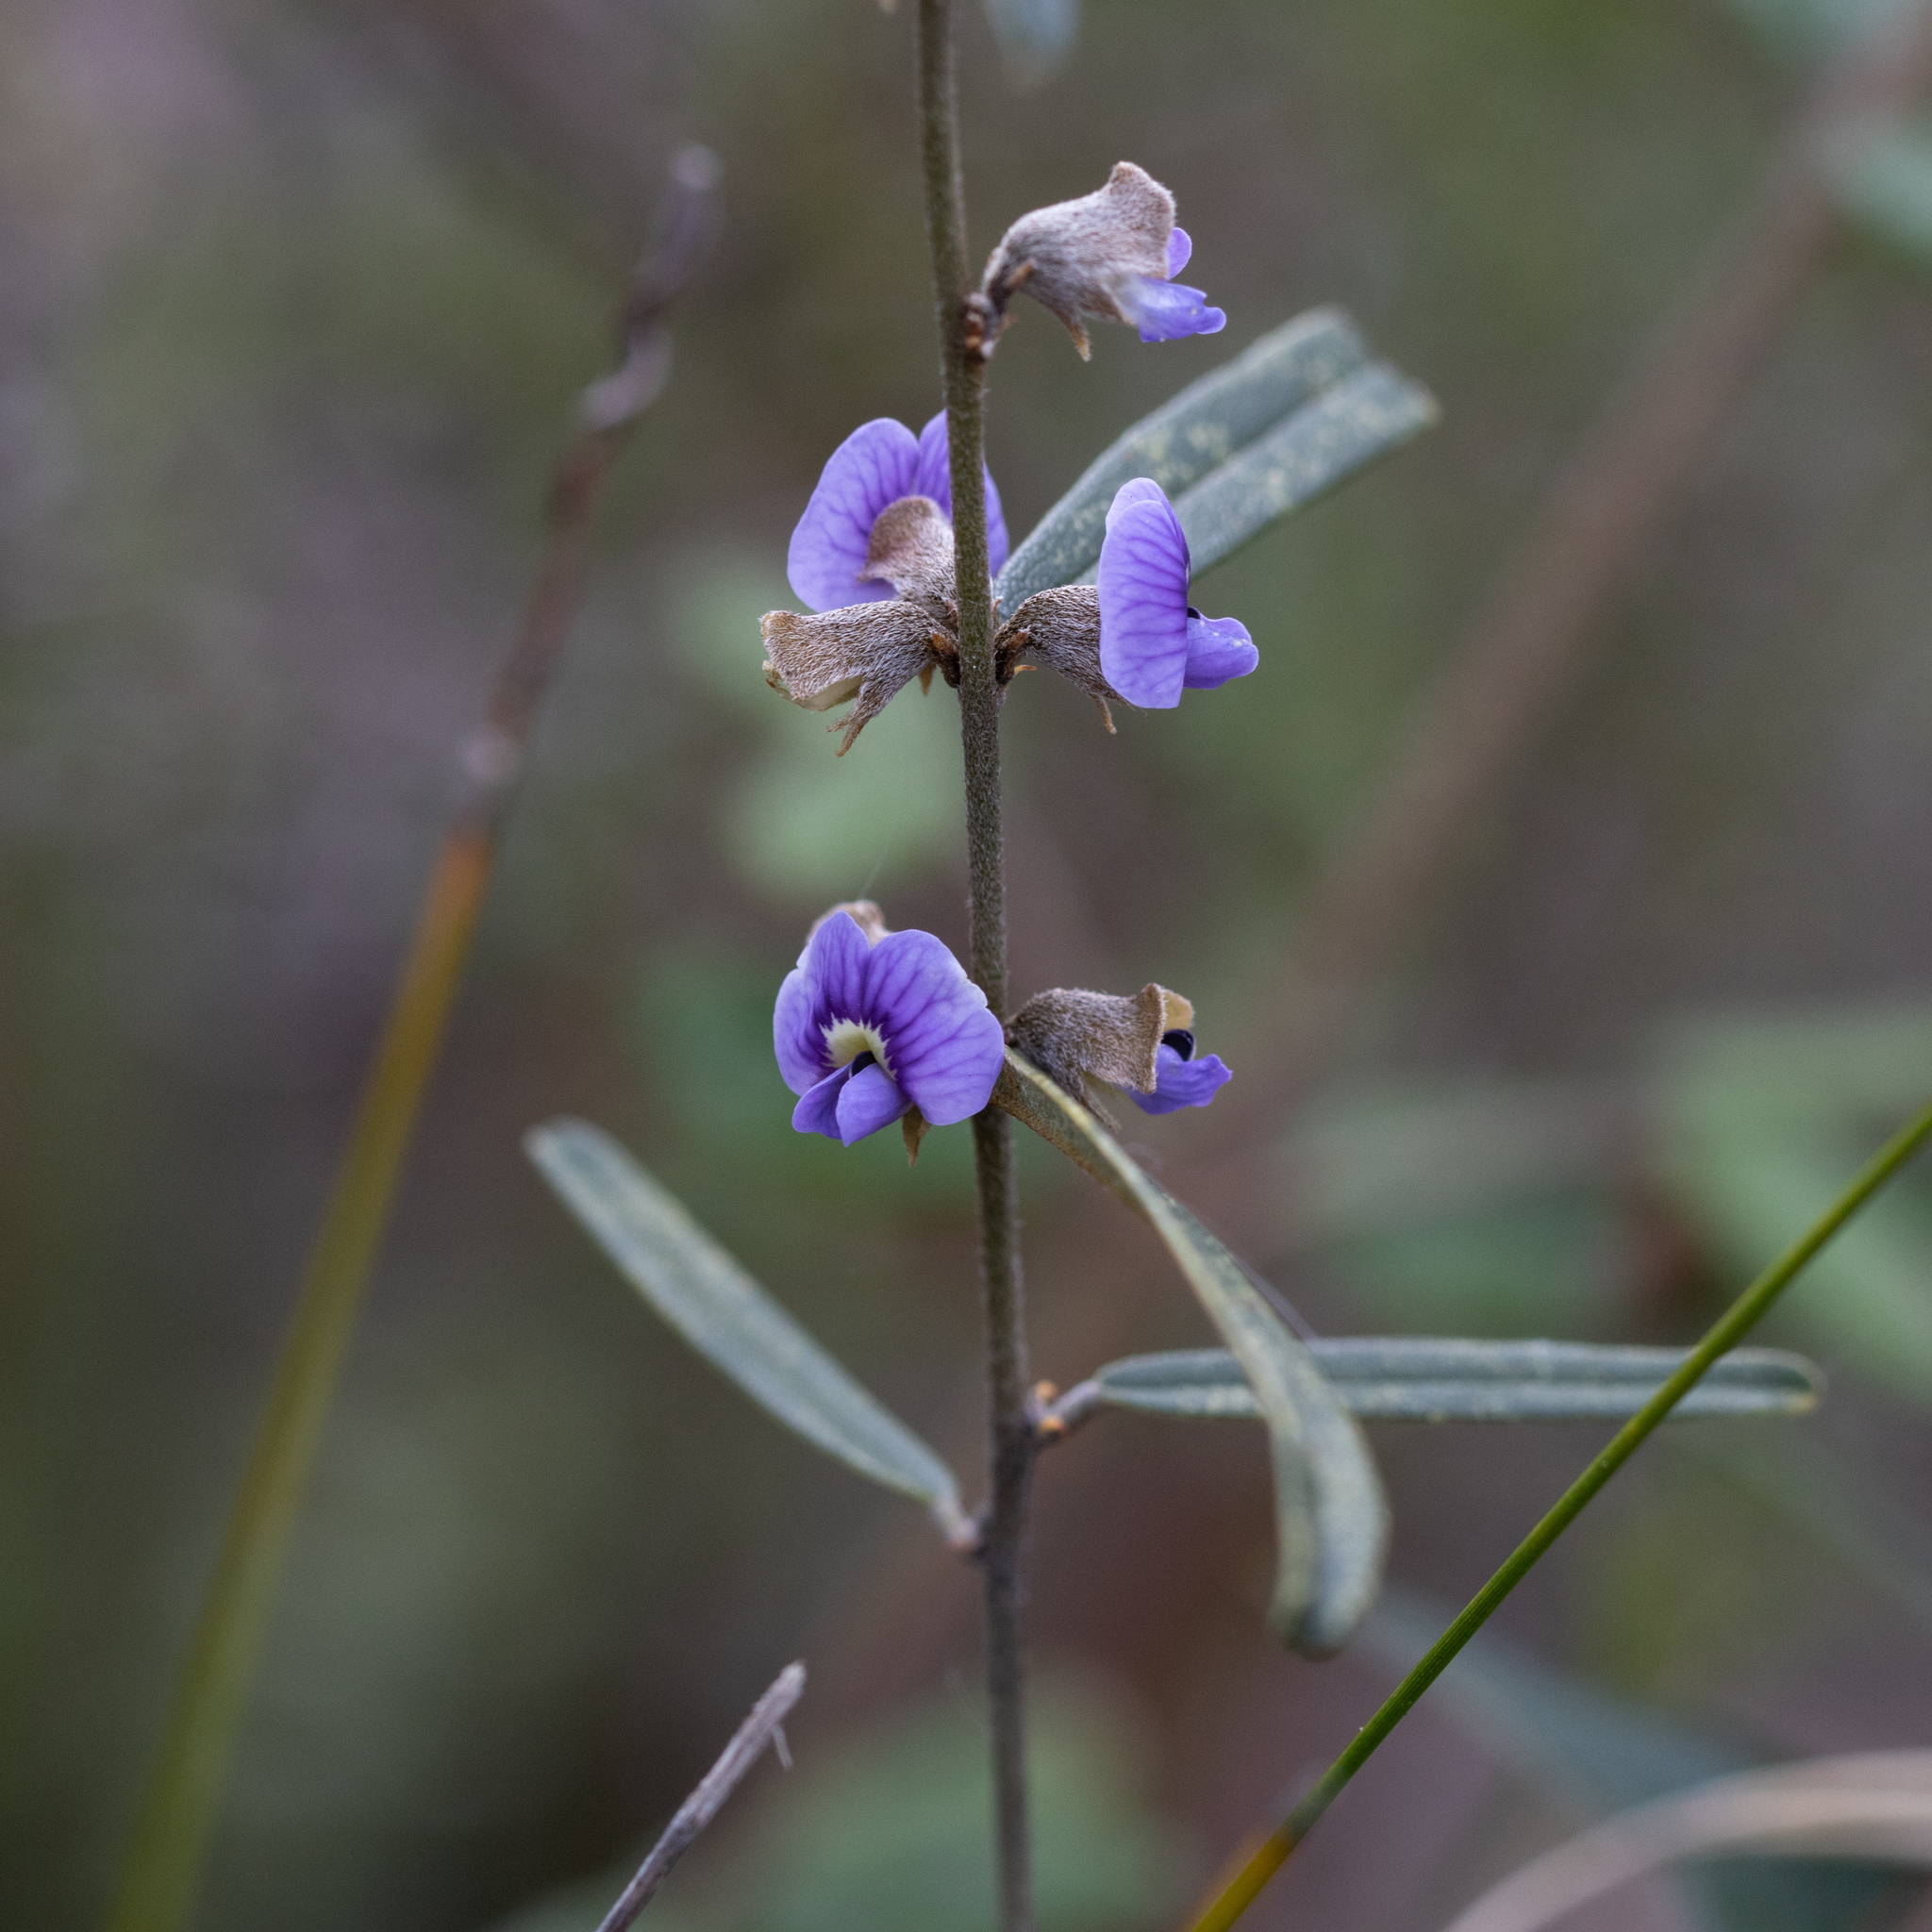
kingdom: Plantae
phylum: Tracheophyta
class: Magnoliopsida
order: Fabales
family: Fabaceae
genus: Hovea
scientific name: Hovea heterophylla
